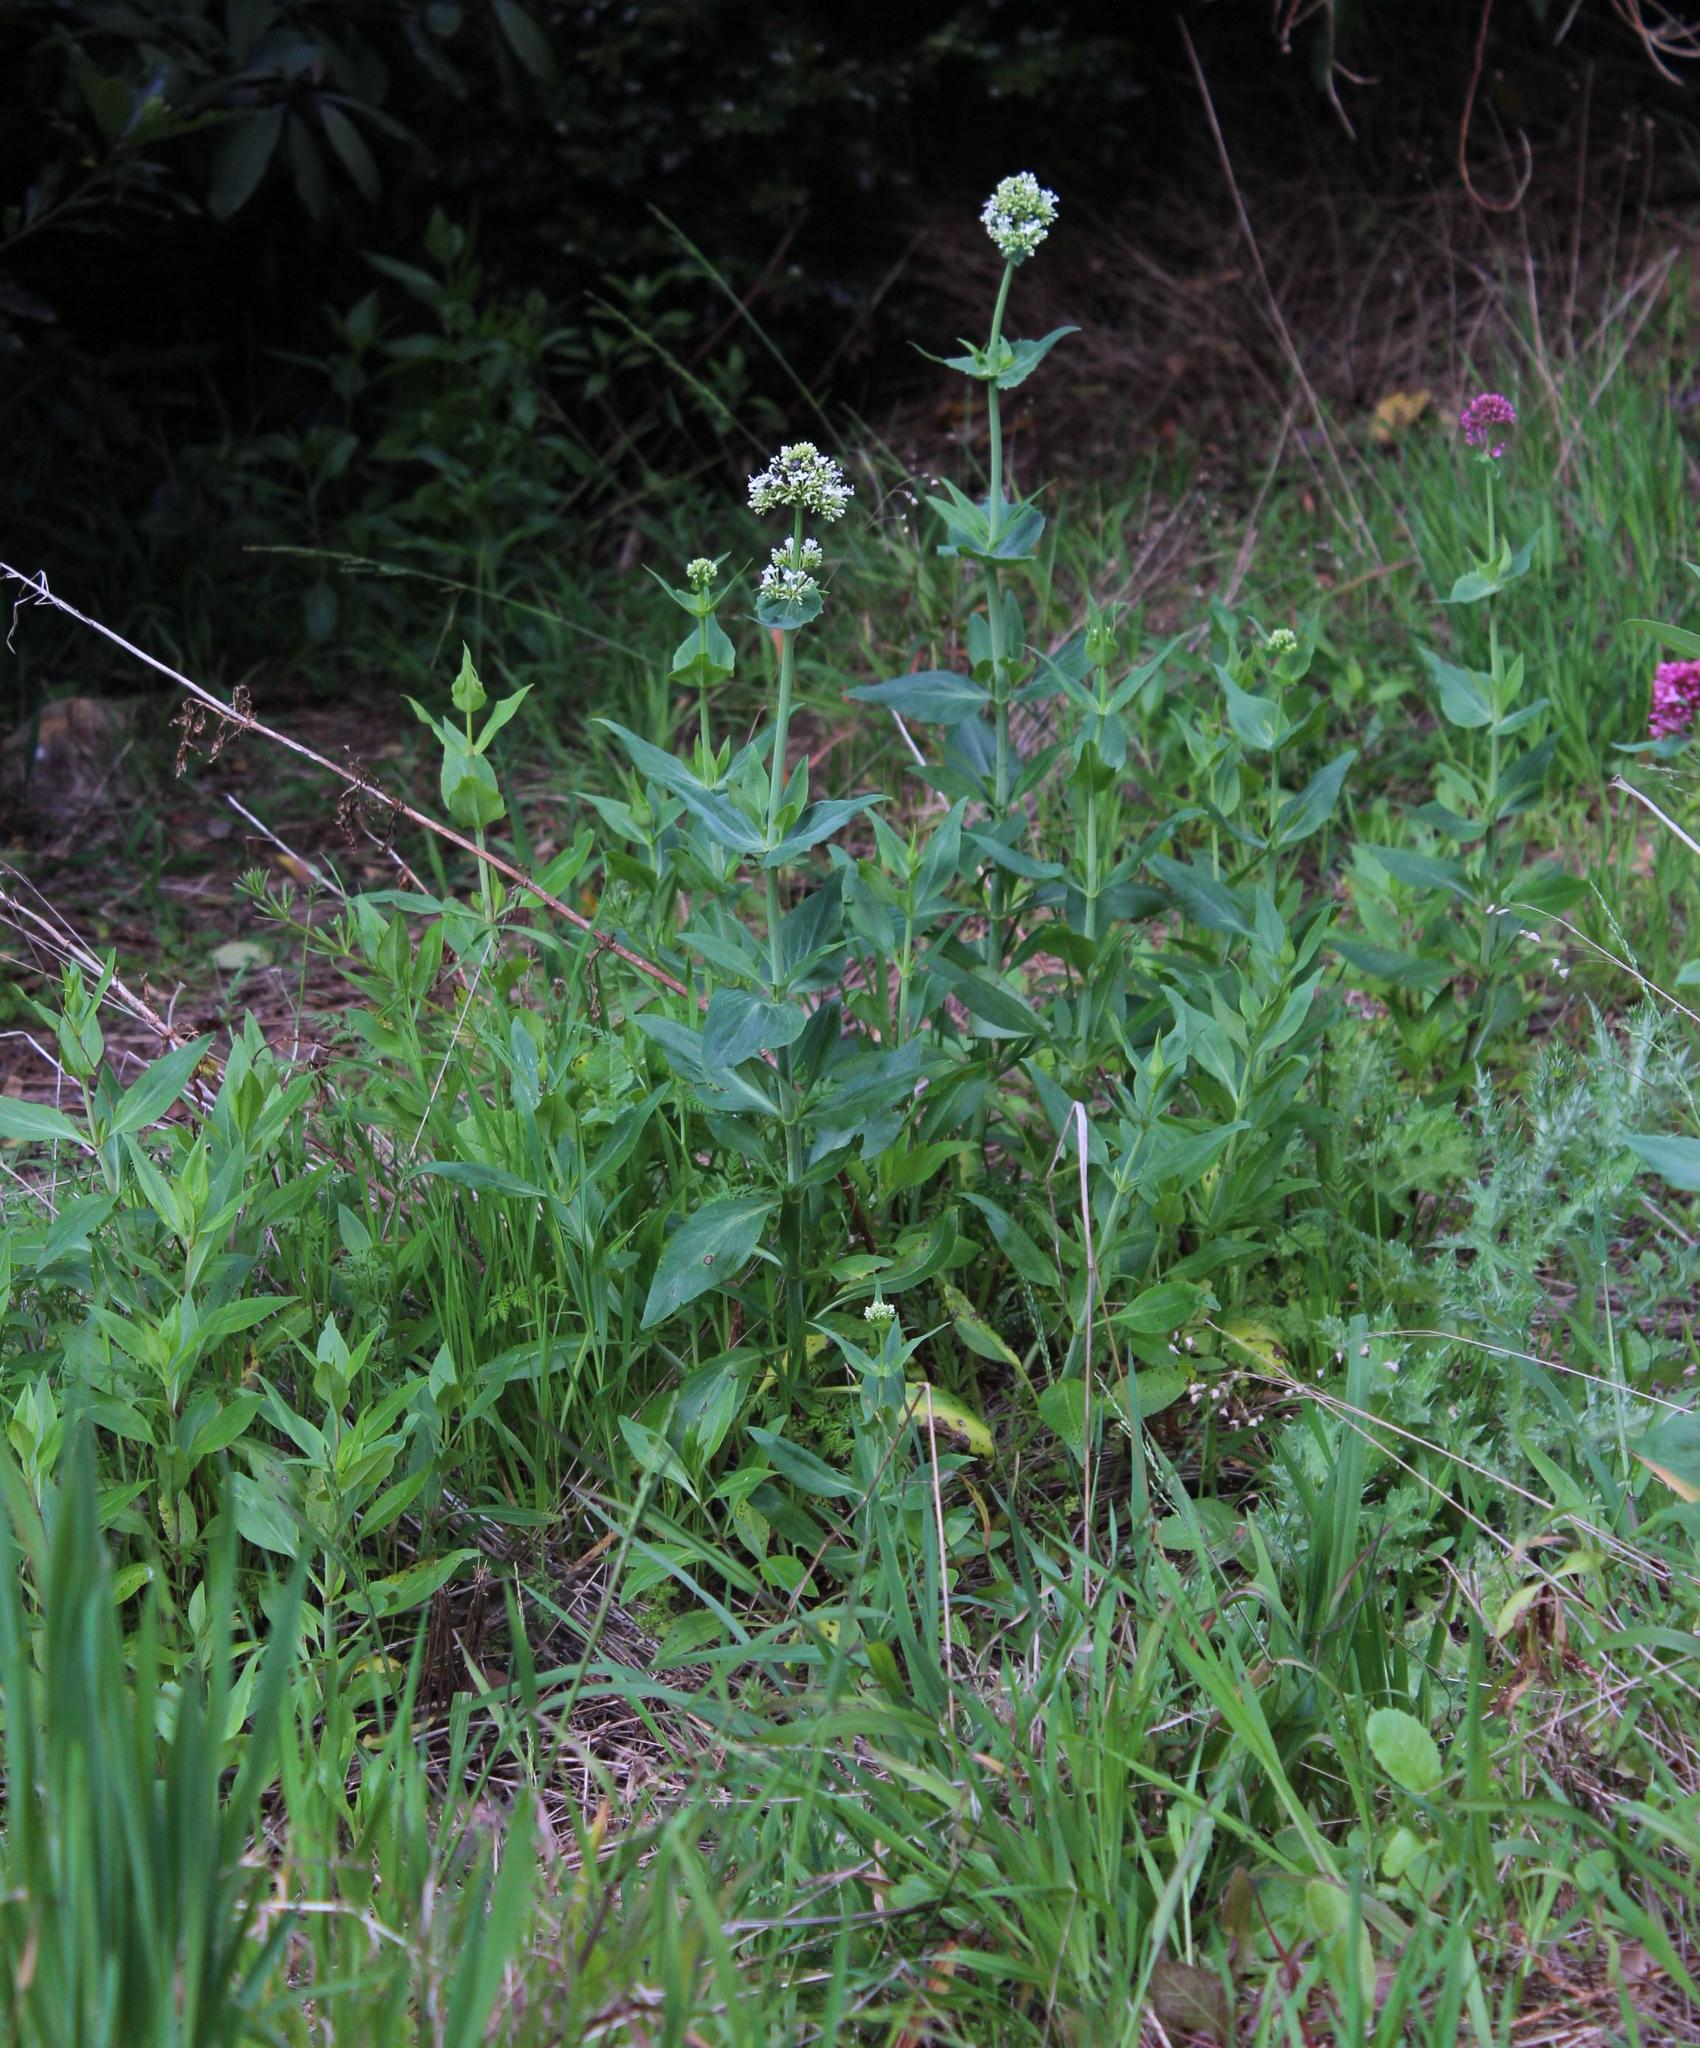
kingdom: Plantae
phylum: Tracheophyta
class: Magnoliopsida
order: Dipsacales
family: Caprifoliaceae
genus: Centranthus
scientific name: Centranthus ruber
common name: Red valerian
